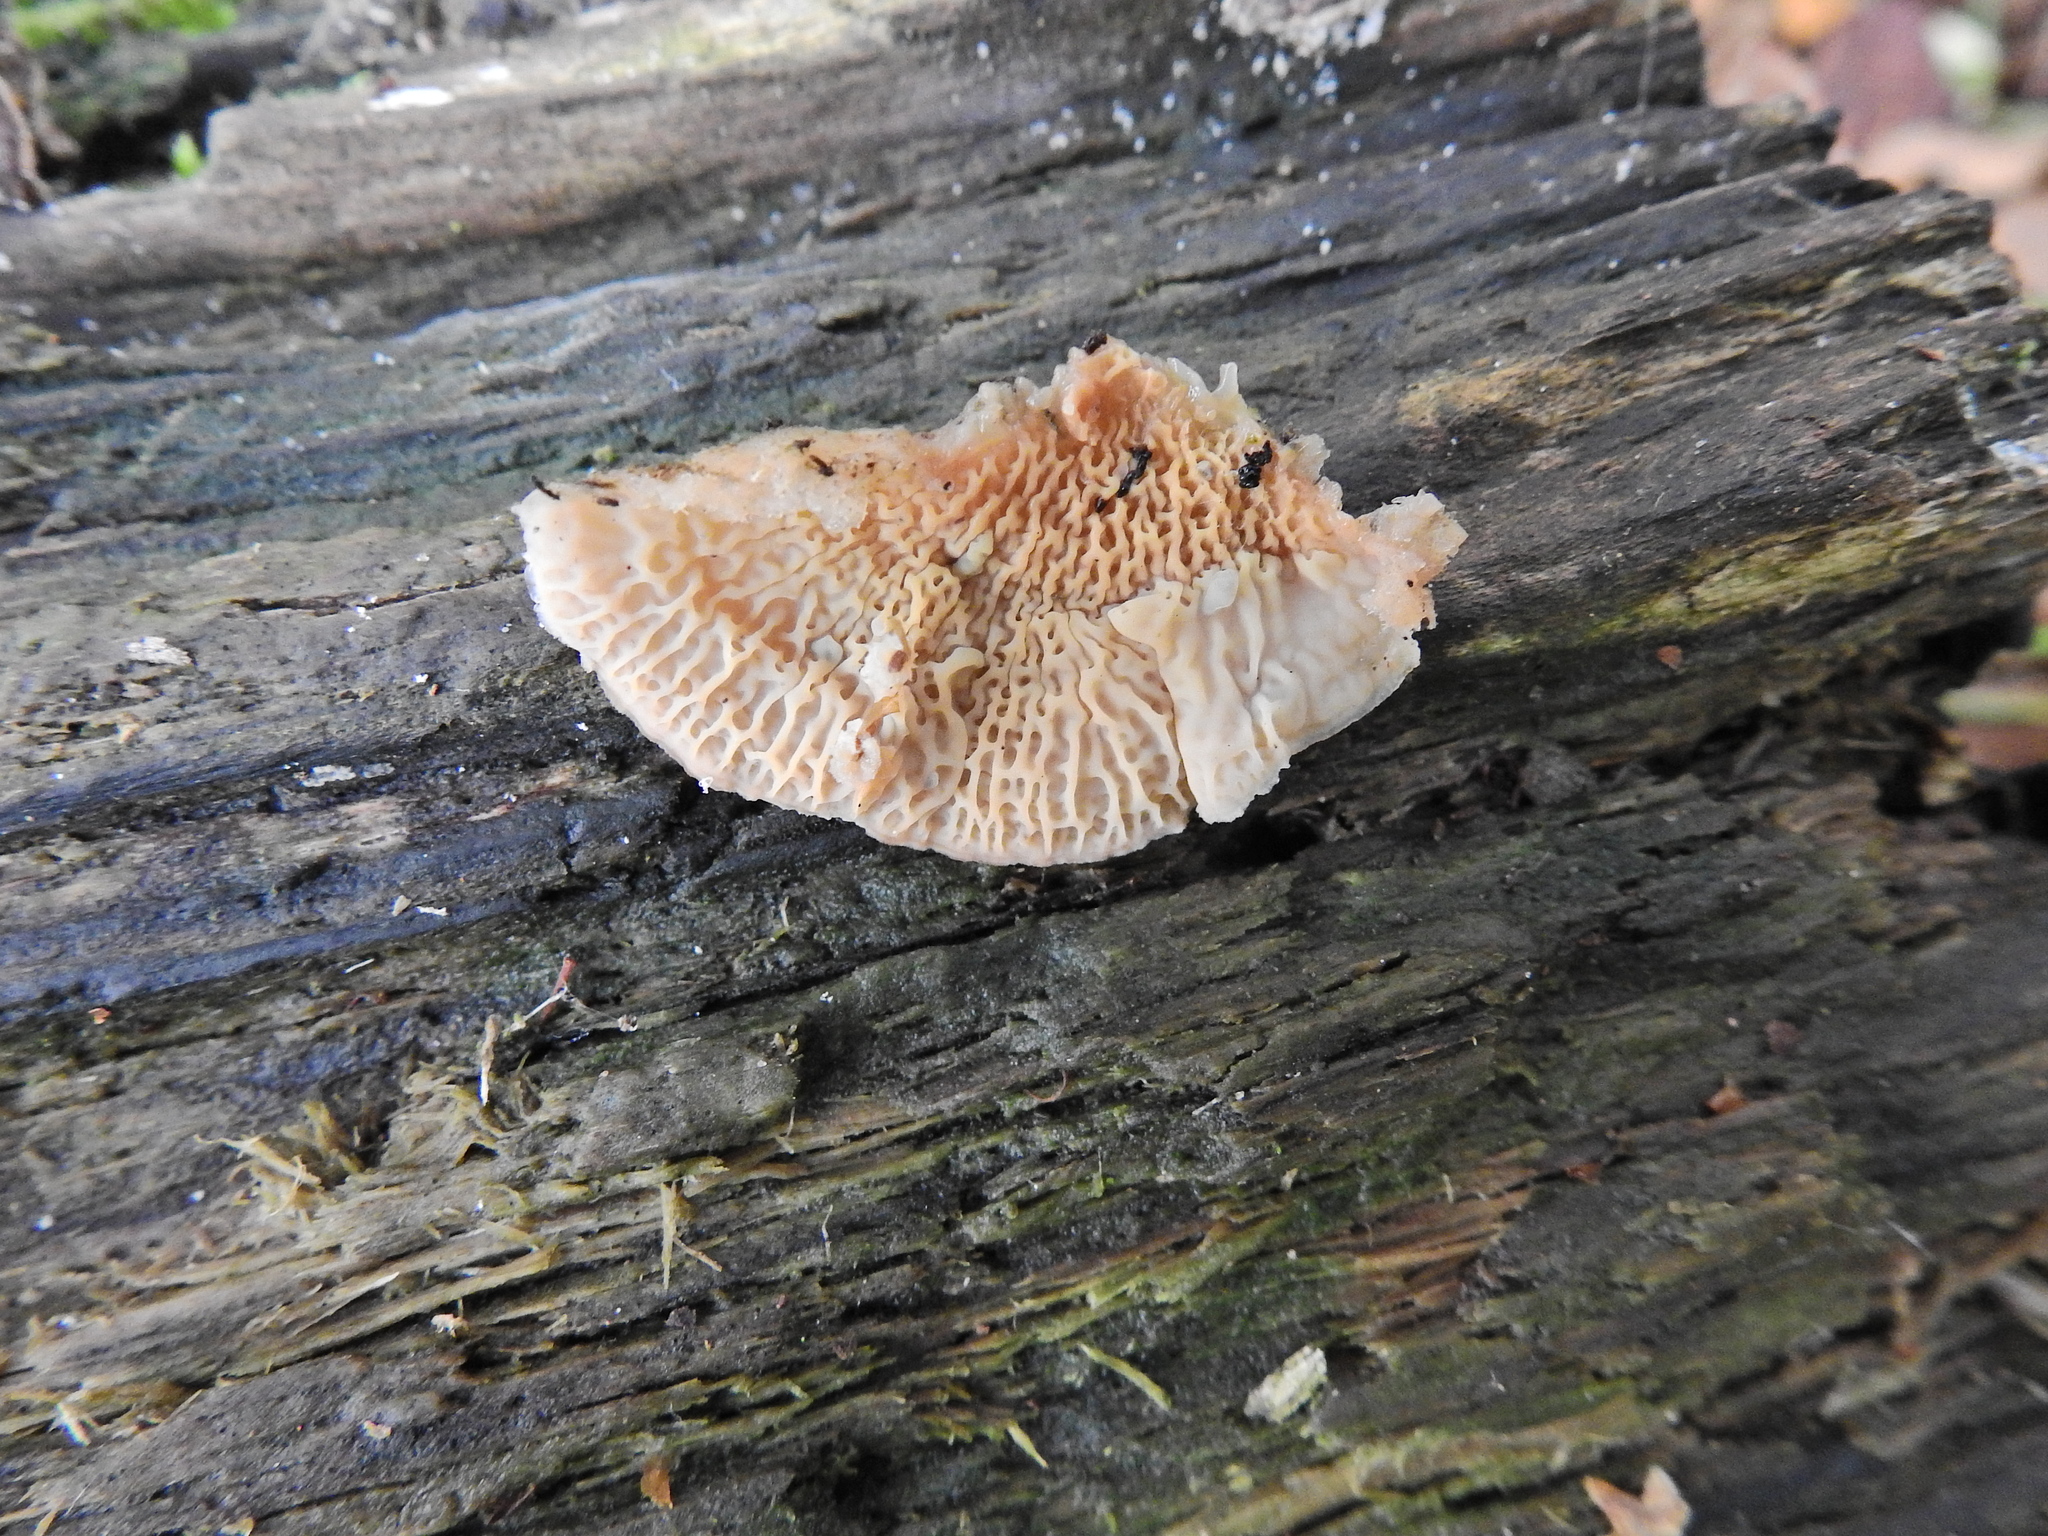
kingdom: Fungi
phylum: Basidiomycota
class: Agaricomycetes
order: Polyporales
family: Meruliaceae
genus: Phlebia
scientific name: Phlebia tremellosa
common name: Jelly rot
